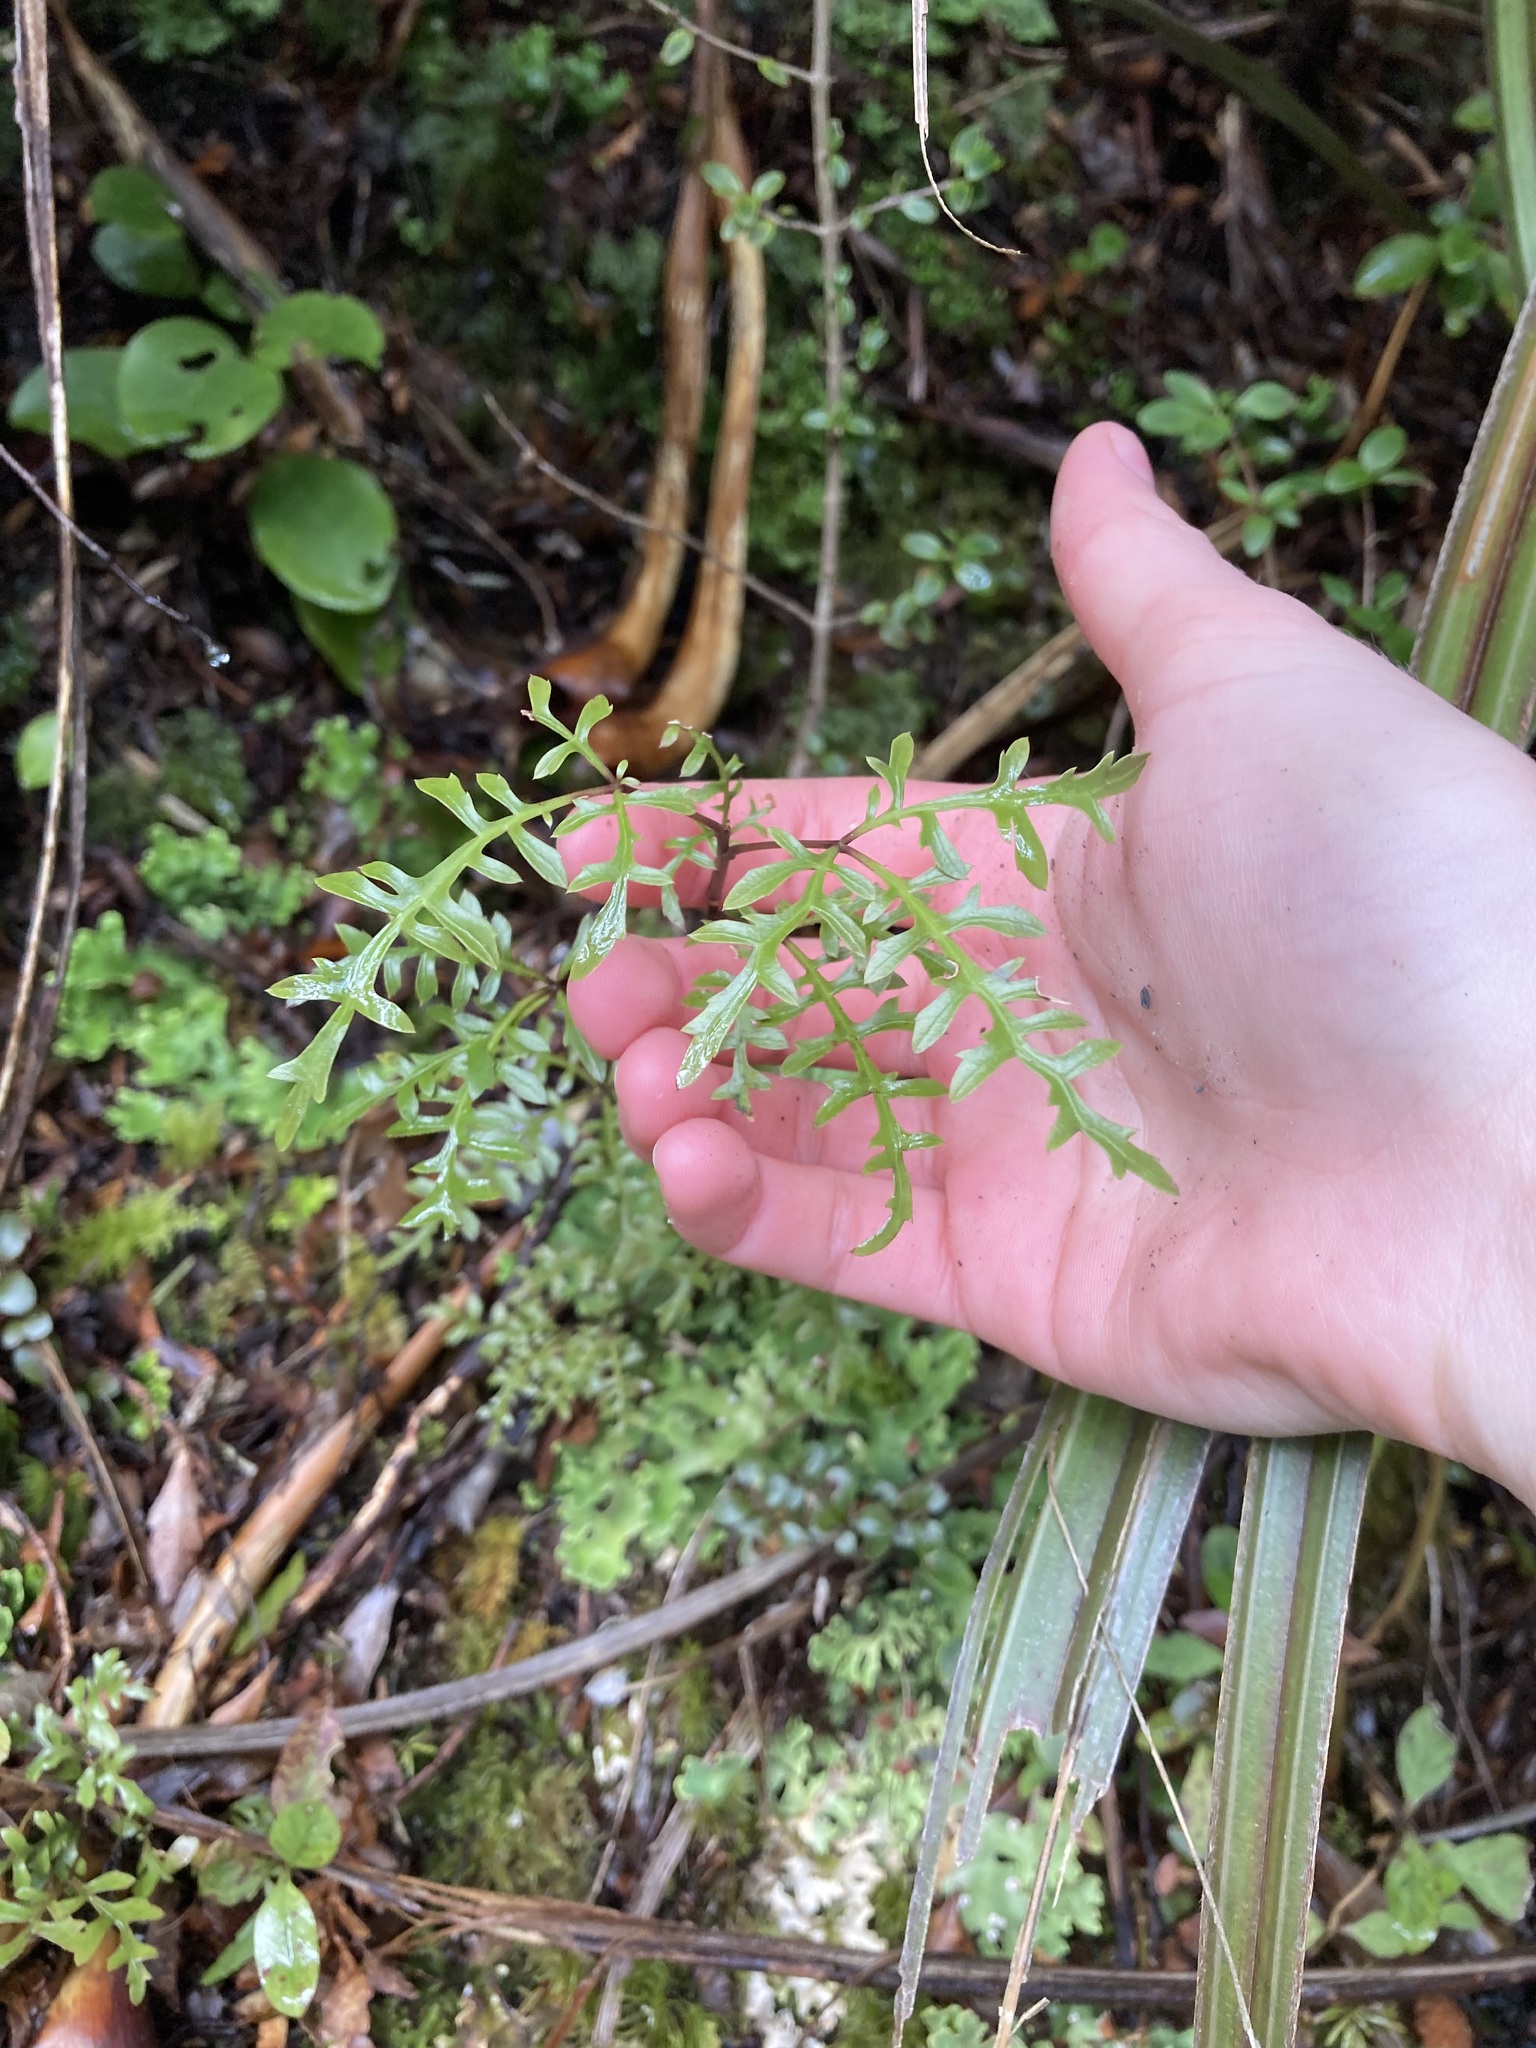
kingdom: Plantae
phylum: Tracheophyta
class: Magnoliopsida
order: Apiales
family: Araliaceae
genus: Raukaua
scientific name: Raukaua simplex
